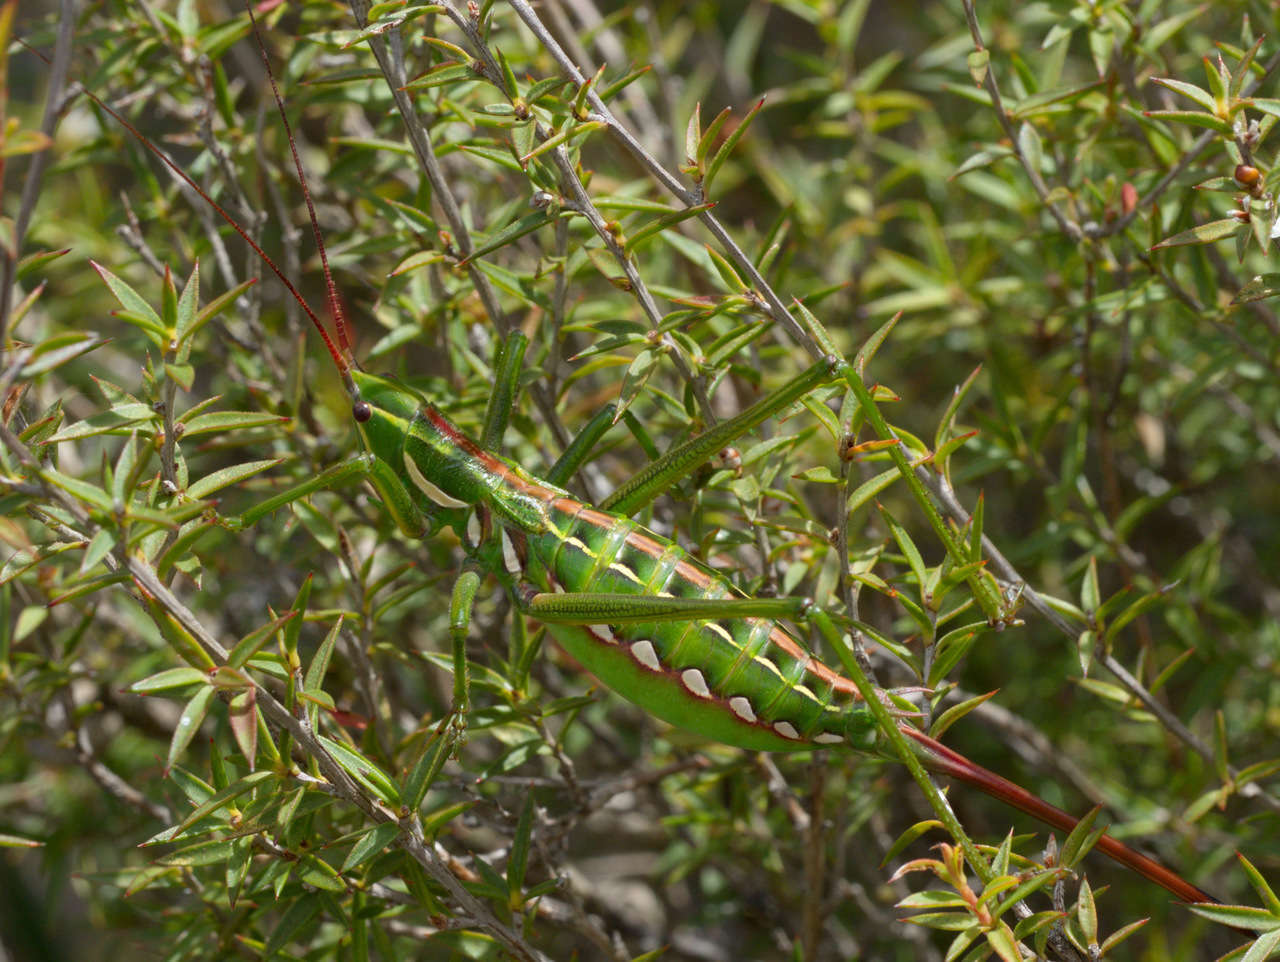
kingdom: Animalia
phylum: Arthropoda
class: Insecta
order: Orthoptera
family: Tettigoniidae
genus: Hemisaga
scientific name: Hemisaga lanceolata
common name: Victorian sluggish katydid
